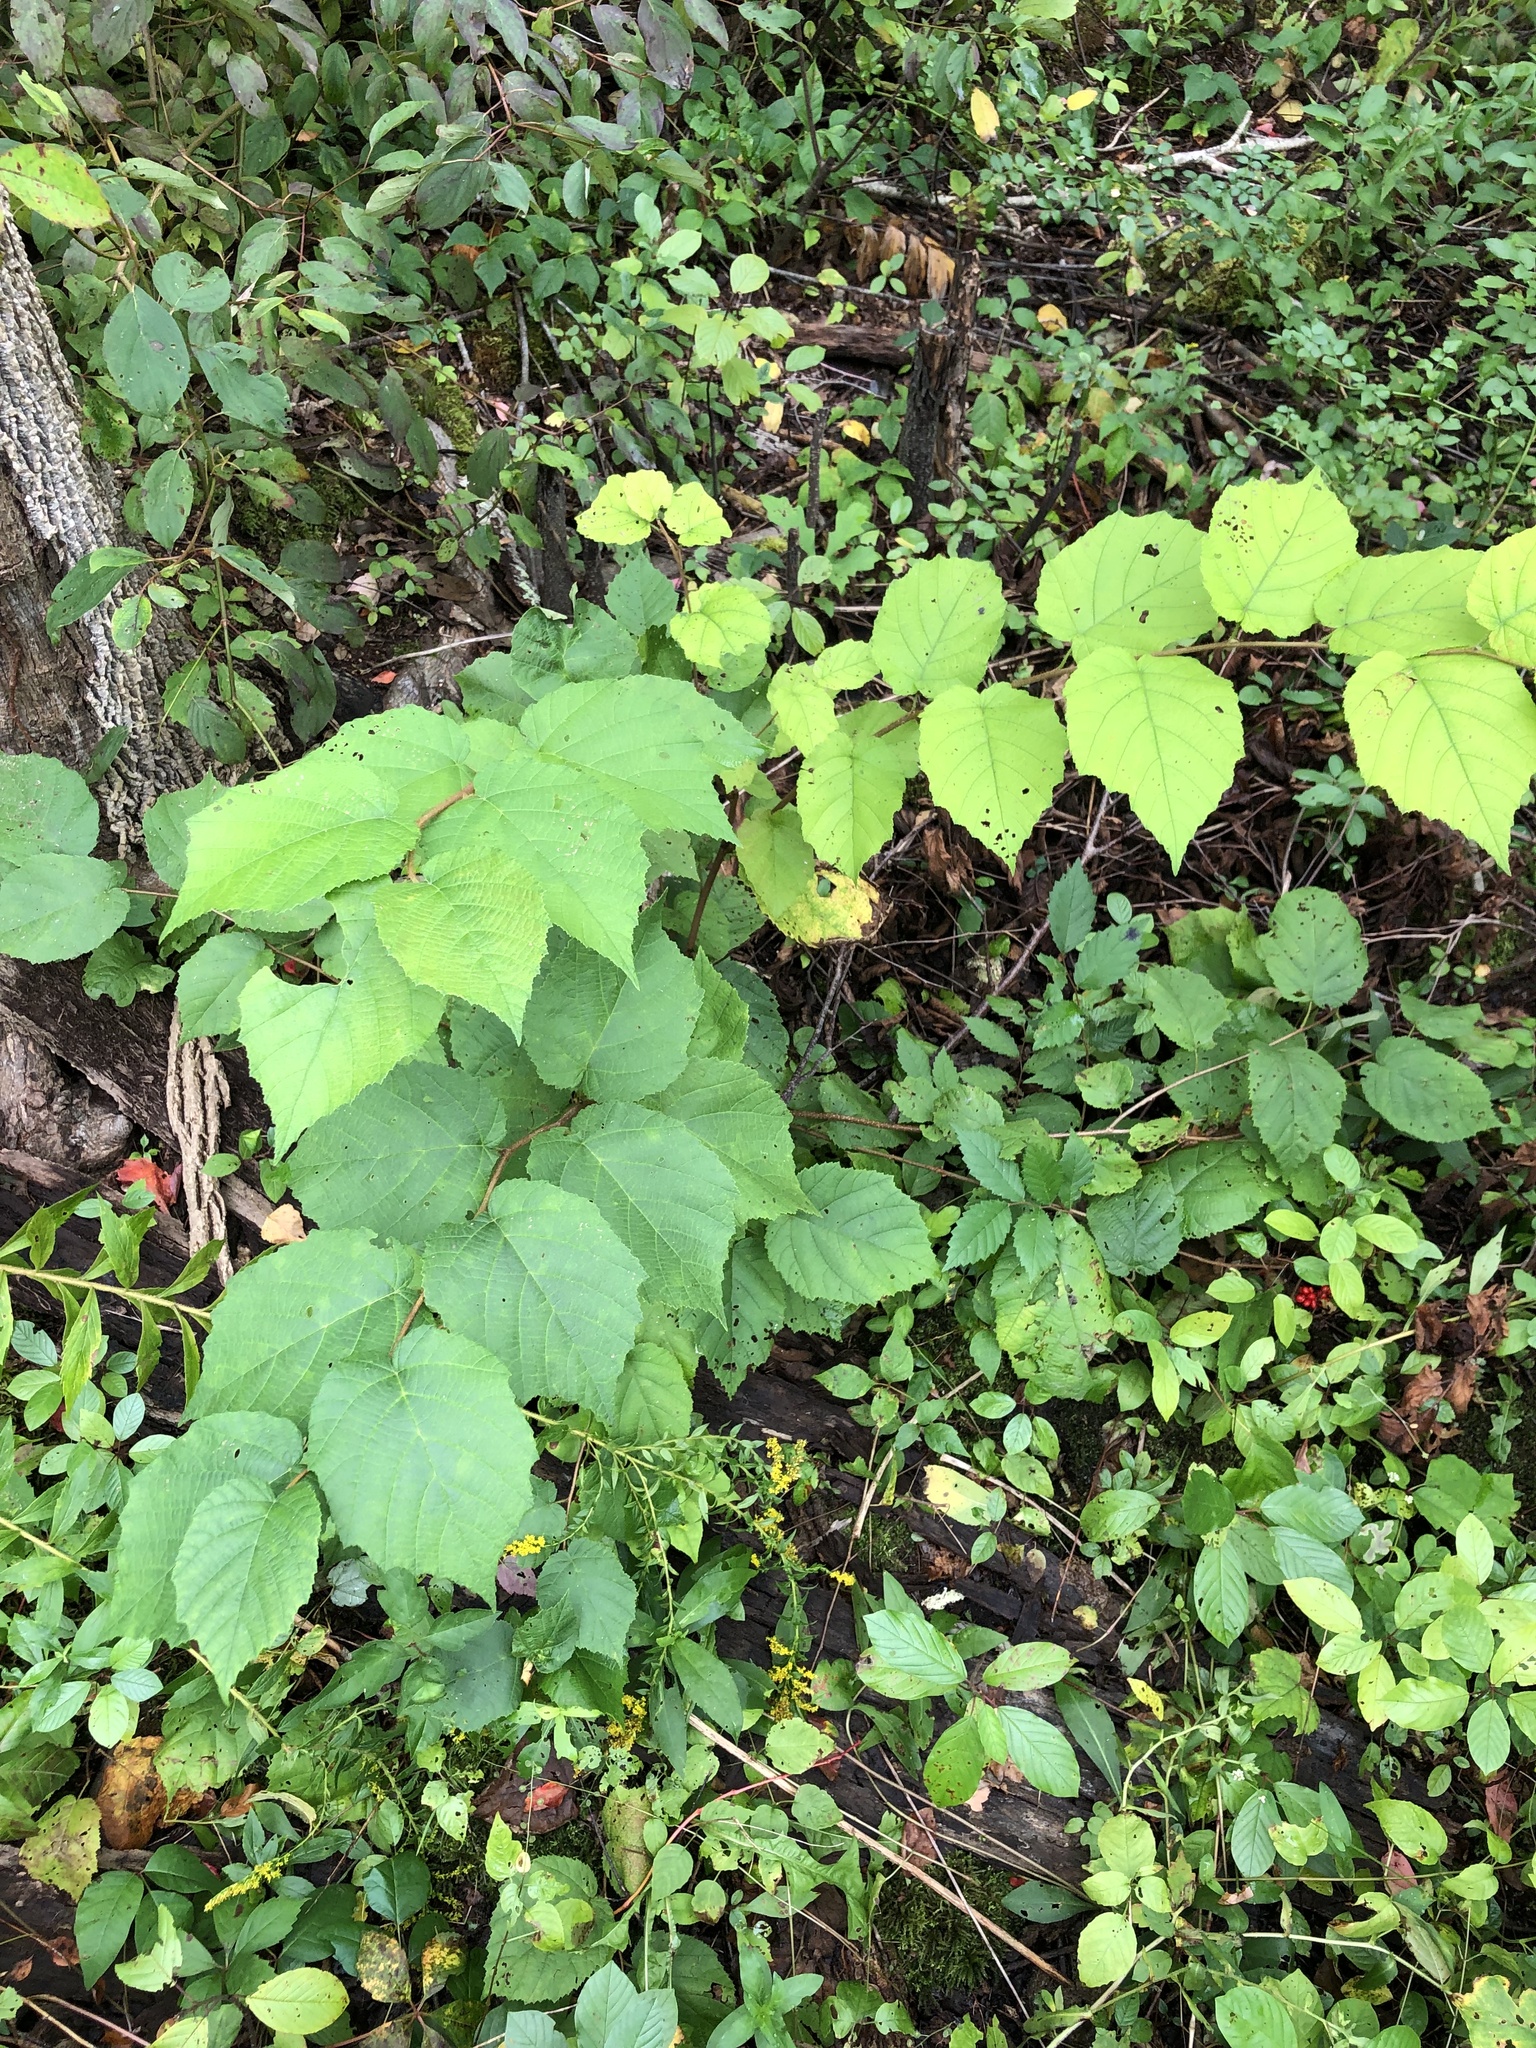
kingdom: Plantae
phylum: Tracheophyta
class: Magnoliopsida
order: Fagales
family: Betulaceae
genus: Corylus
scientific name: Corylus americana
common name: American hazel
